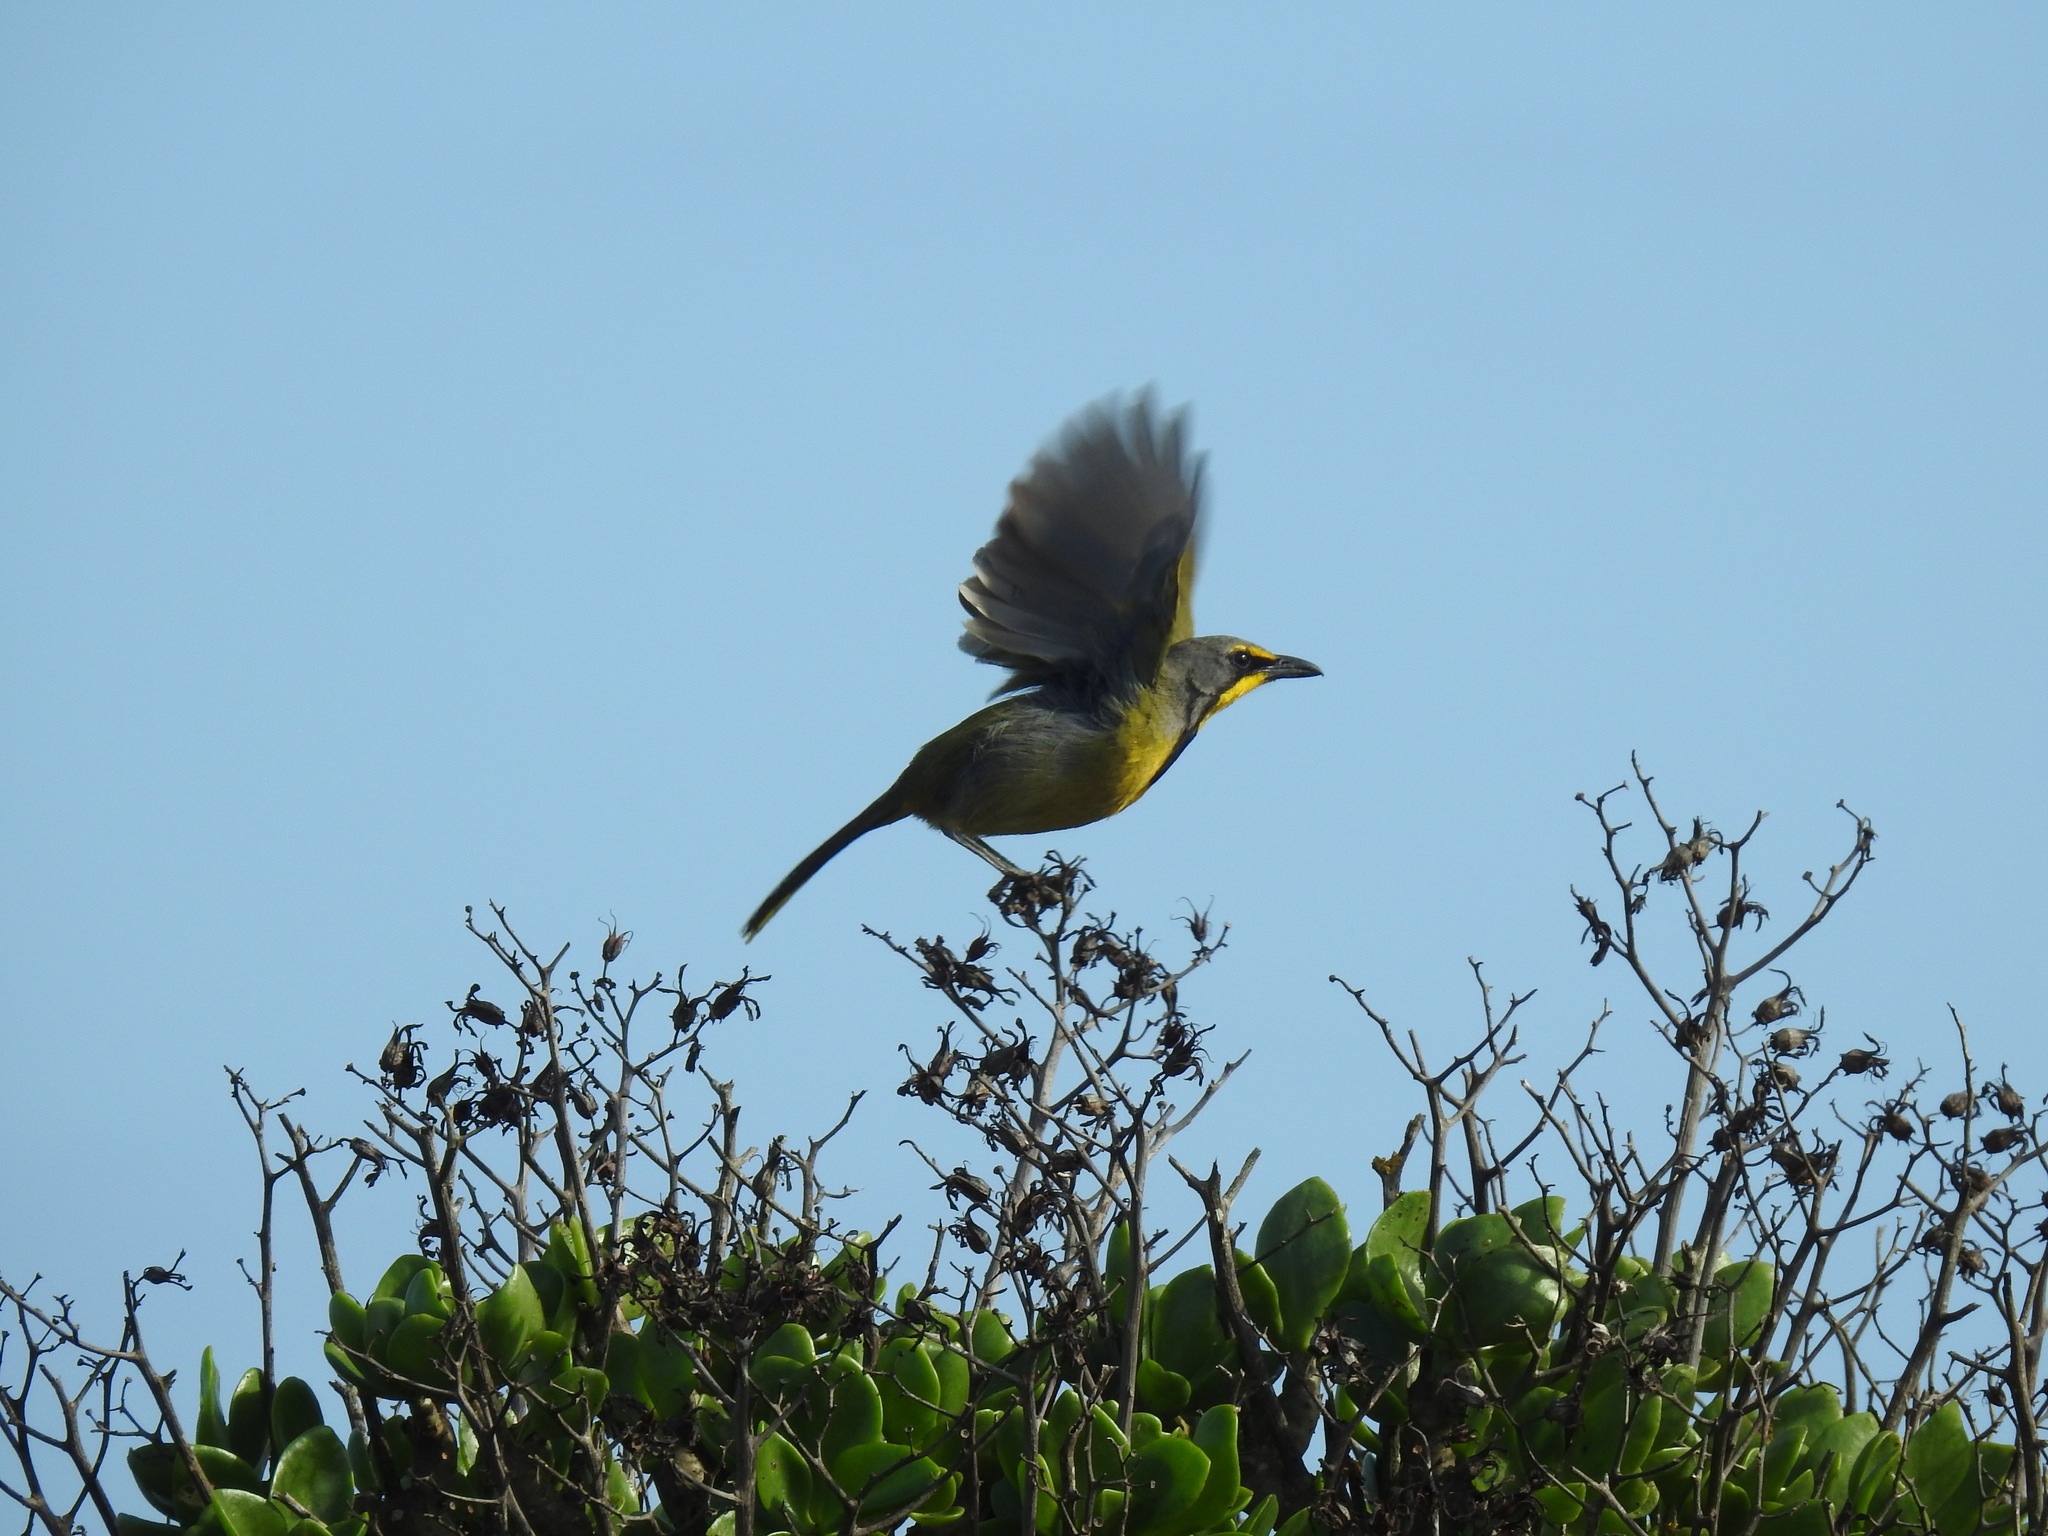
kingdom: Animalia
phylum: Chordata
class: Aves
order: Passeriformes
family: Malaconotidae
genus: Telophorus
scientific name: Telophorus zeylonus
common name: Bokmakierie
